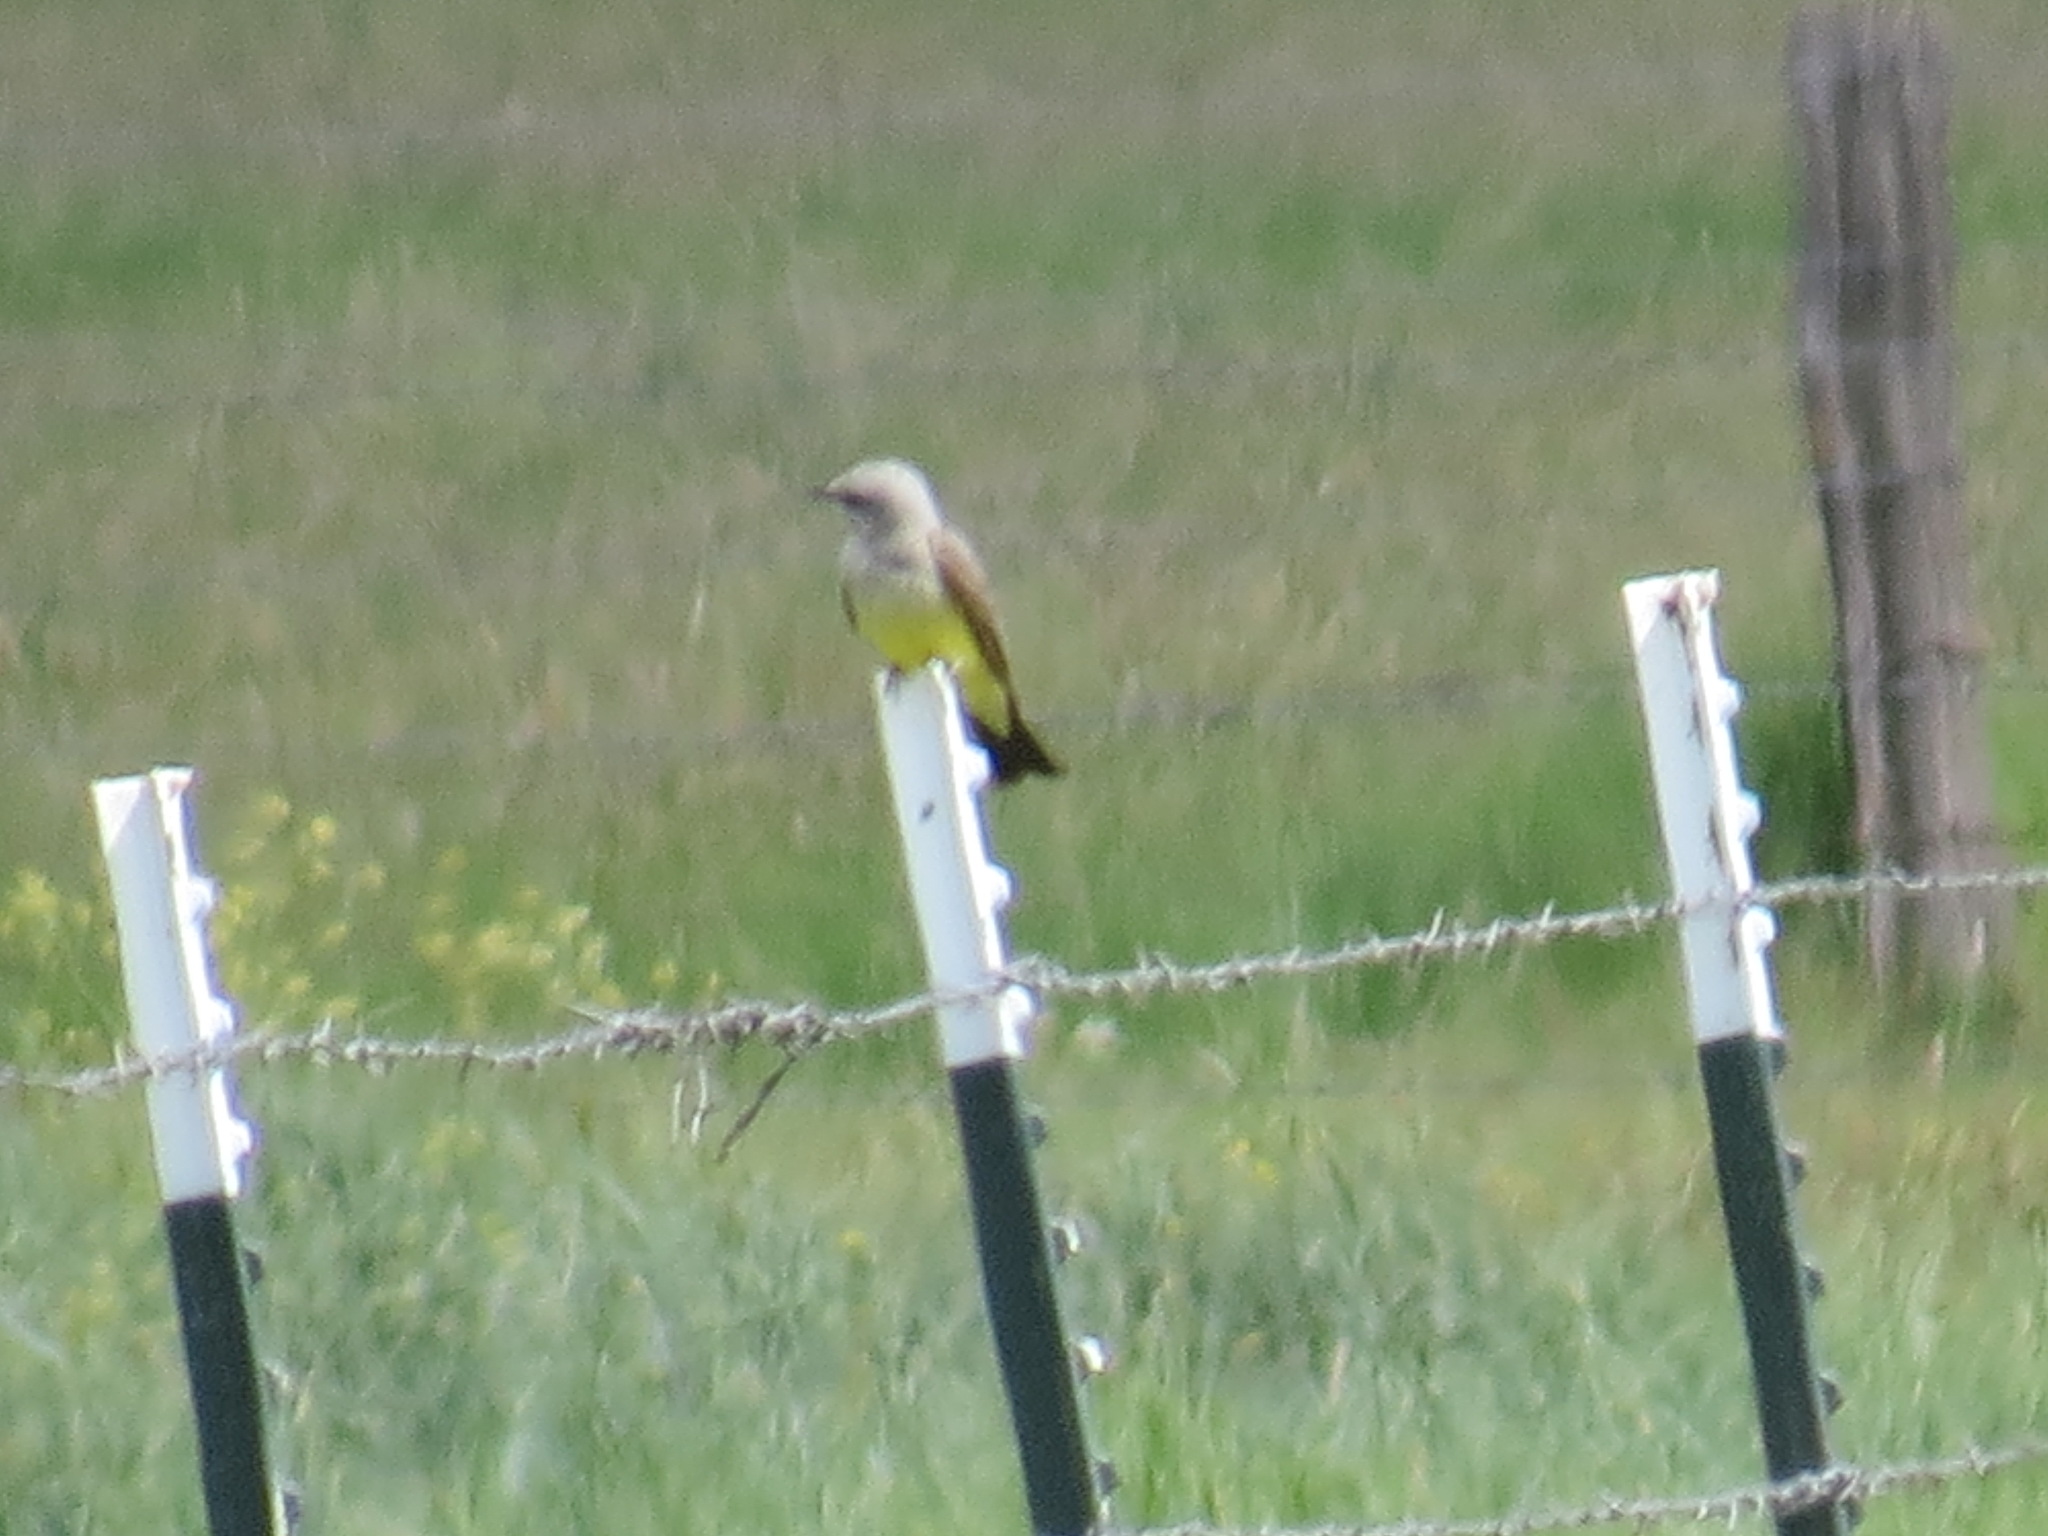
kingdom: Animalia
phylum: Chordata
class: Aves
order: Passeriformes
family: Tyrannidae
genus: Tyrannus
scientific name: Tyrannus verticalis
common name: Western kingbird
